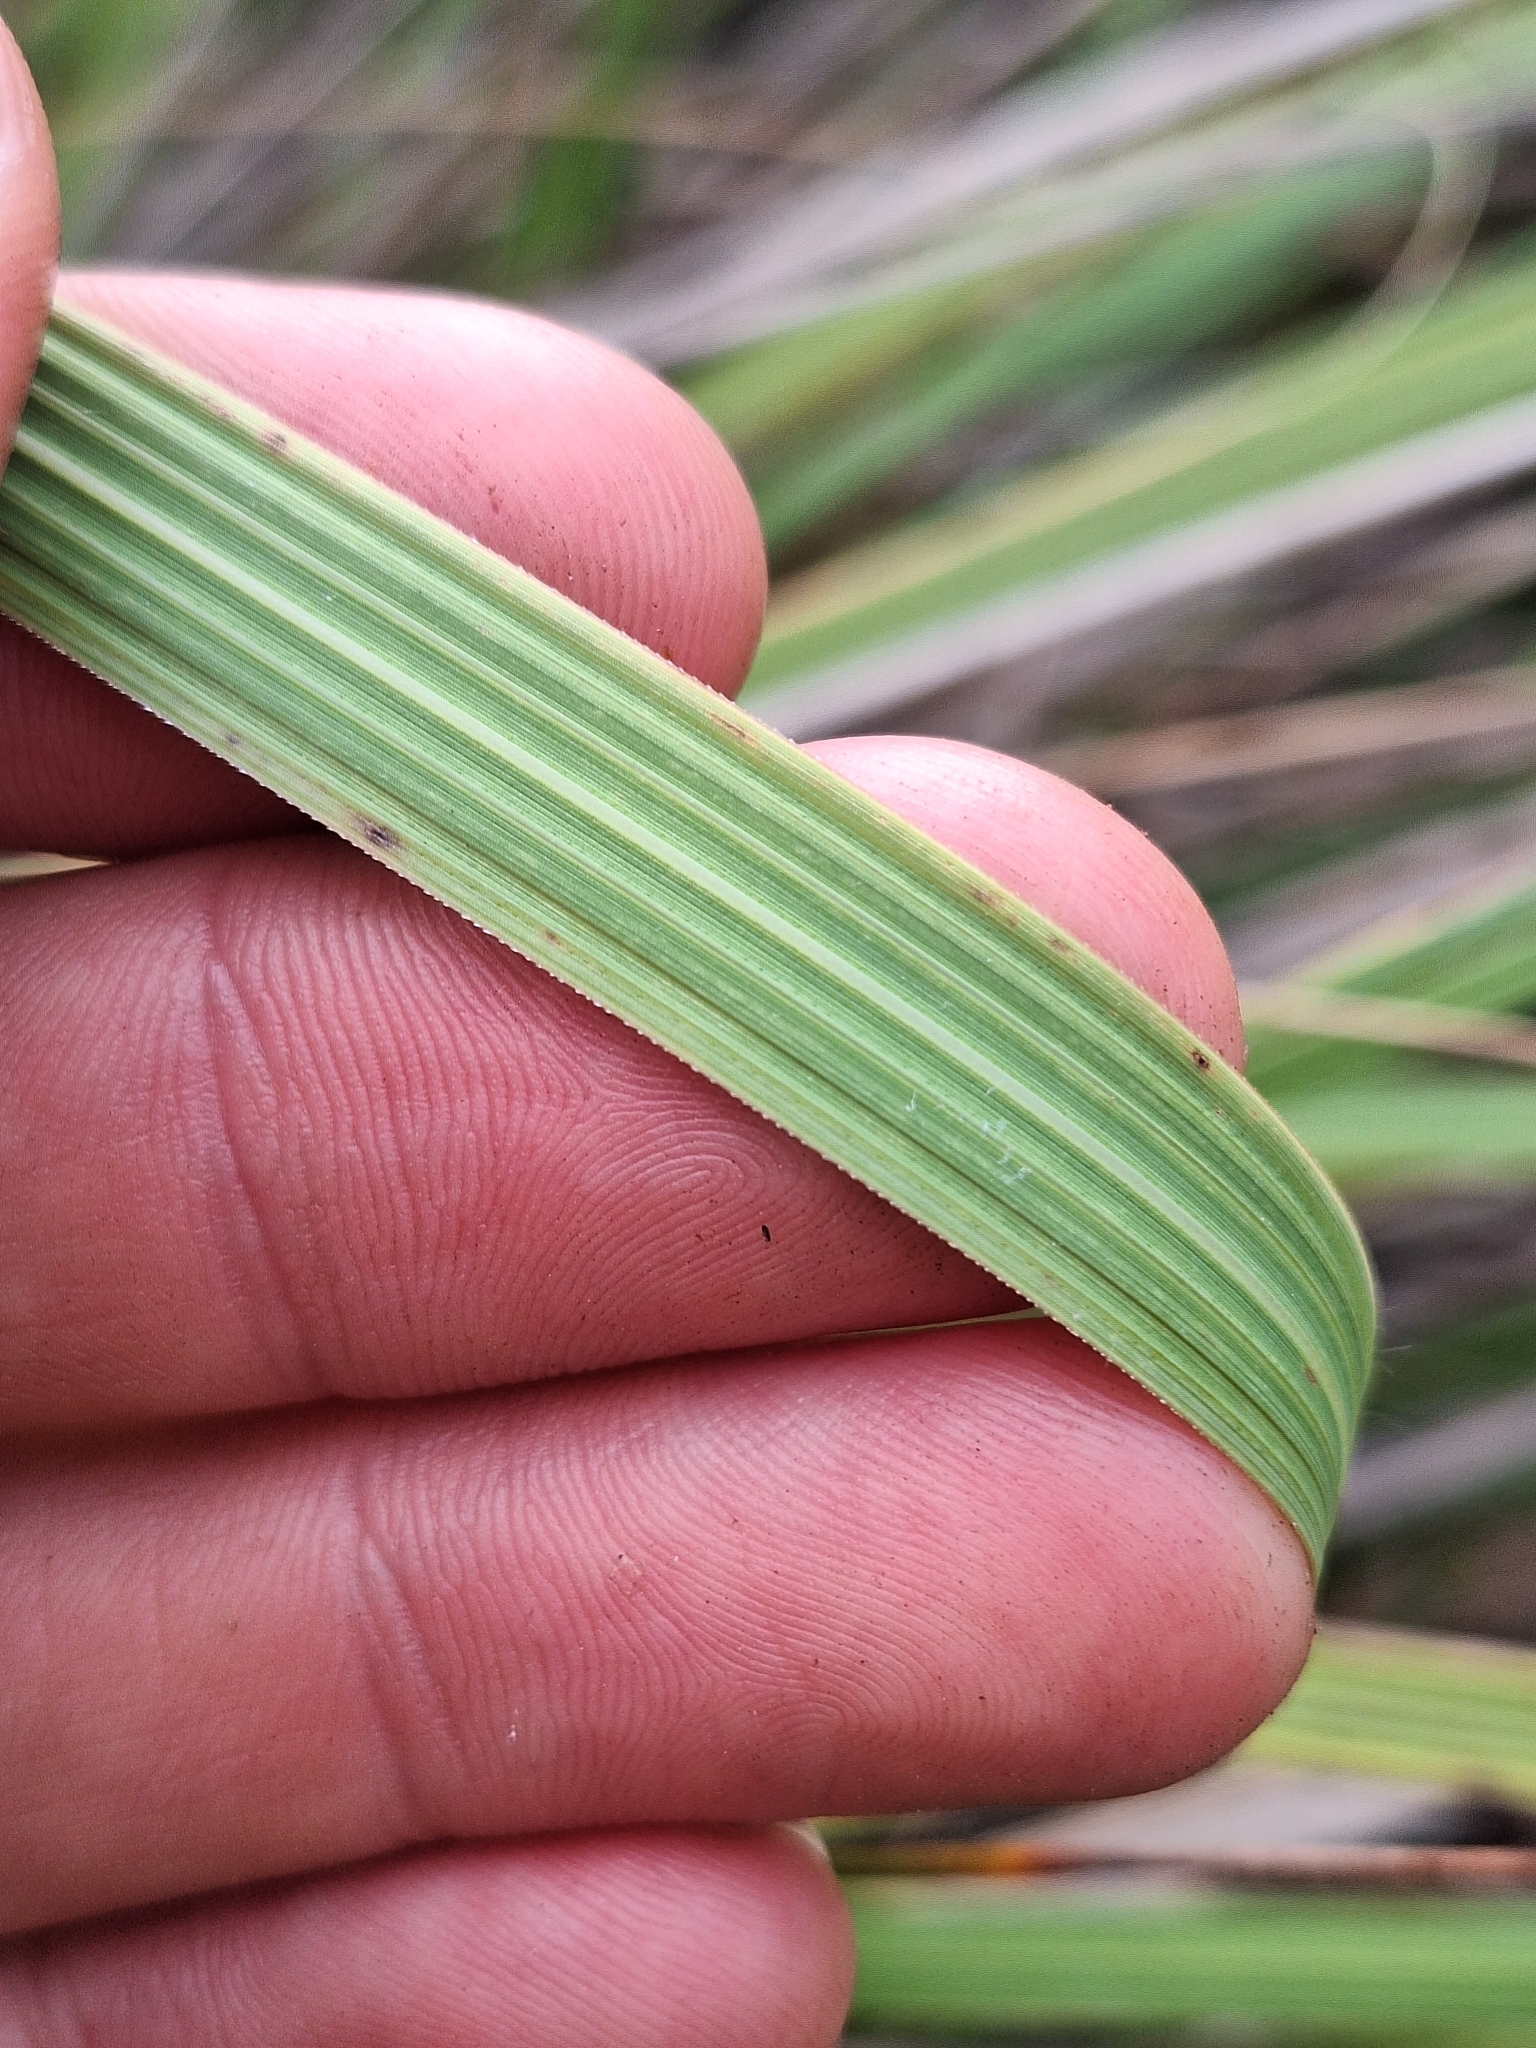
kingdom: Plantae
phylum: Tracheophyta
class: Liliopsida
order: Poales
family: Poaceae
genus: Austroderia
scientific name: Austroderia toetoe
